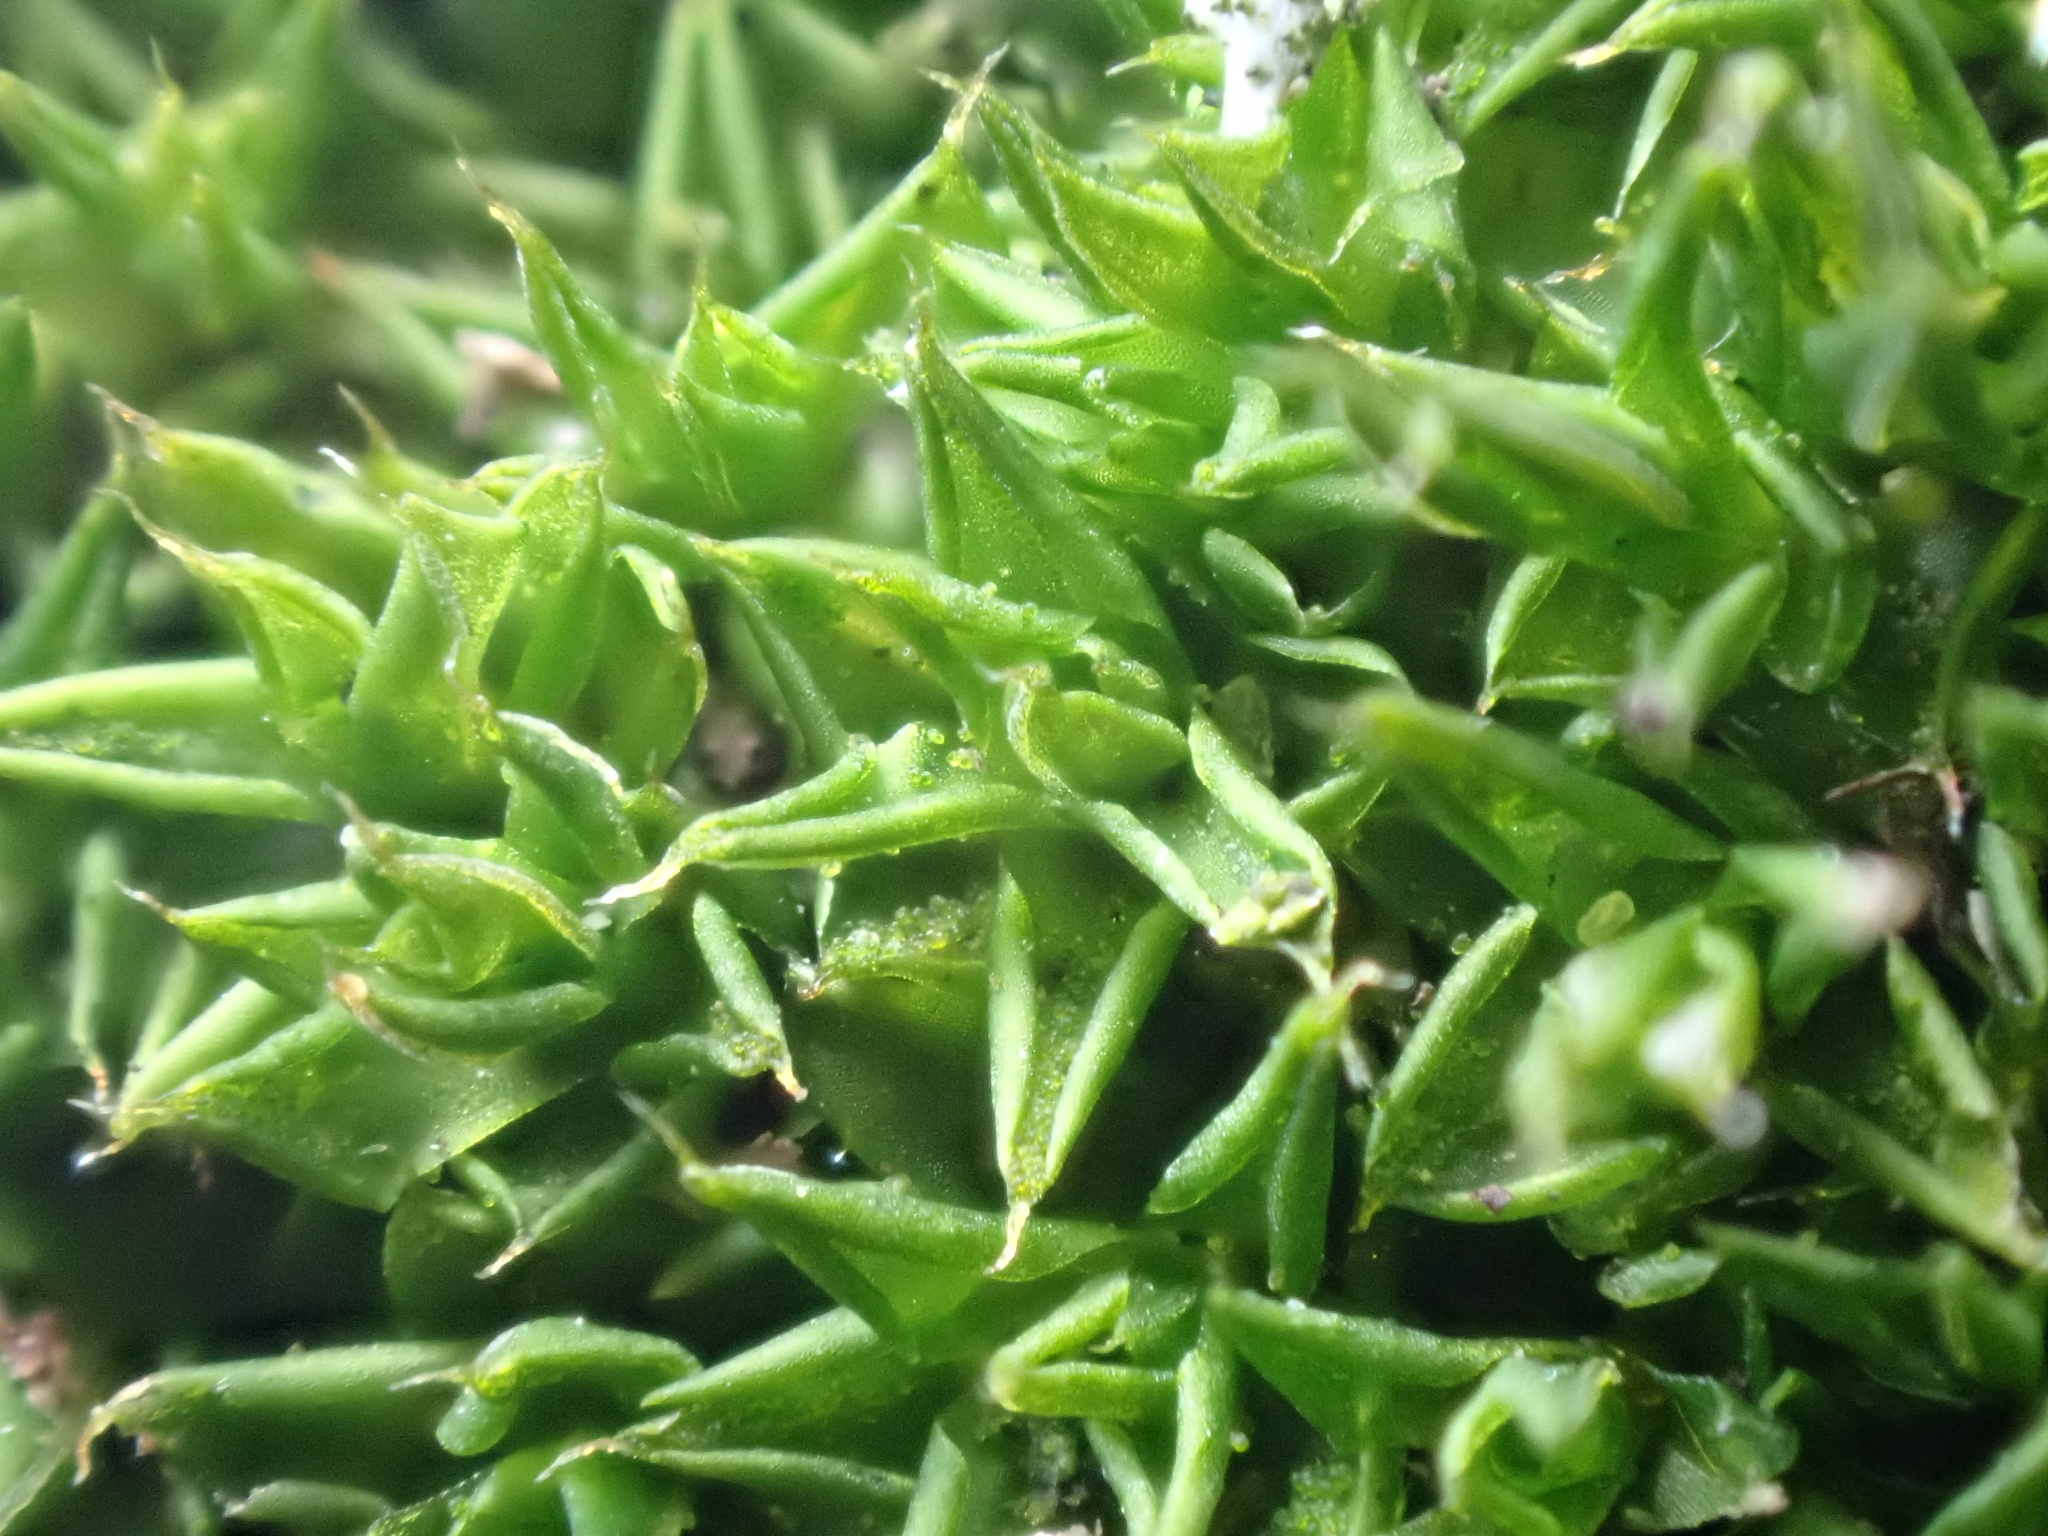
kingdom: Plantae
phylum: Bryophyta
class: Bryopsida
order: Pottiales
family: Pottiaceae
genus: Syntrichia
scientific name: Syntrichia papillosa
